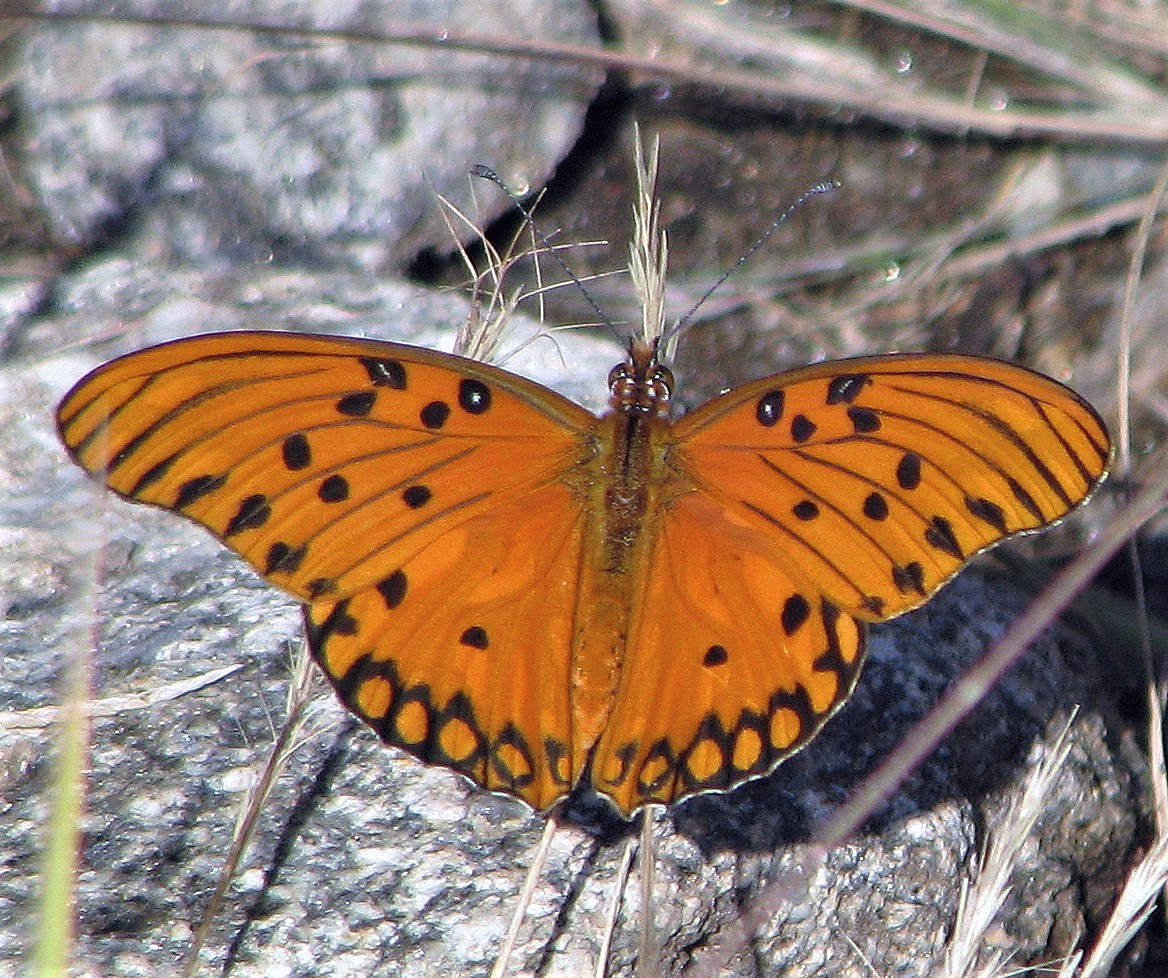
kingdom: Animalia
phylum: Arthropoda
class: Insecta
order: Lepidoptera
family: Nymphalidae
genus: Dione
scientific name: Dione vanillae
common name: Gulf fritillary
